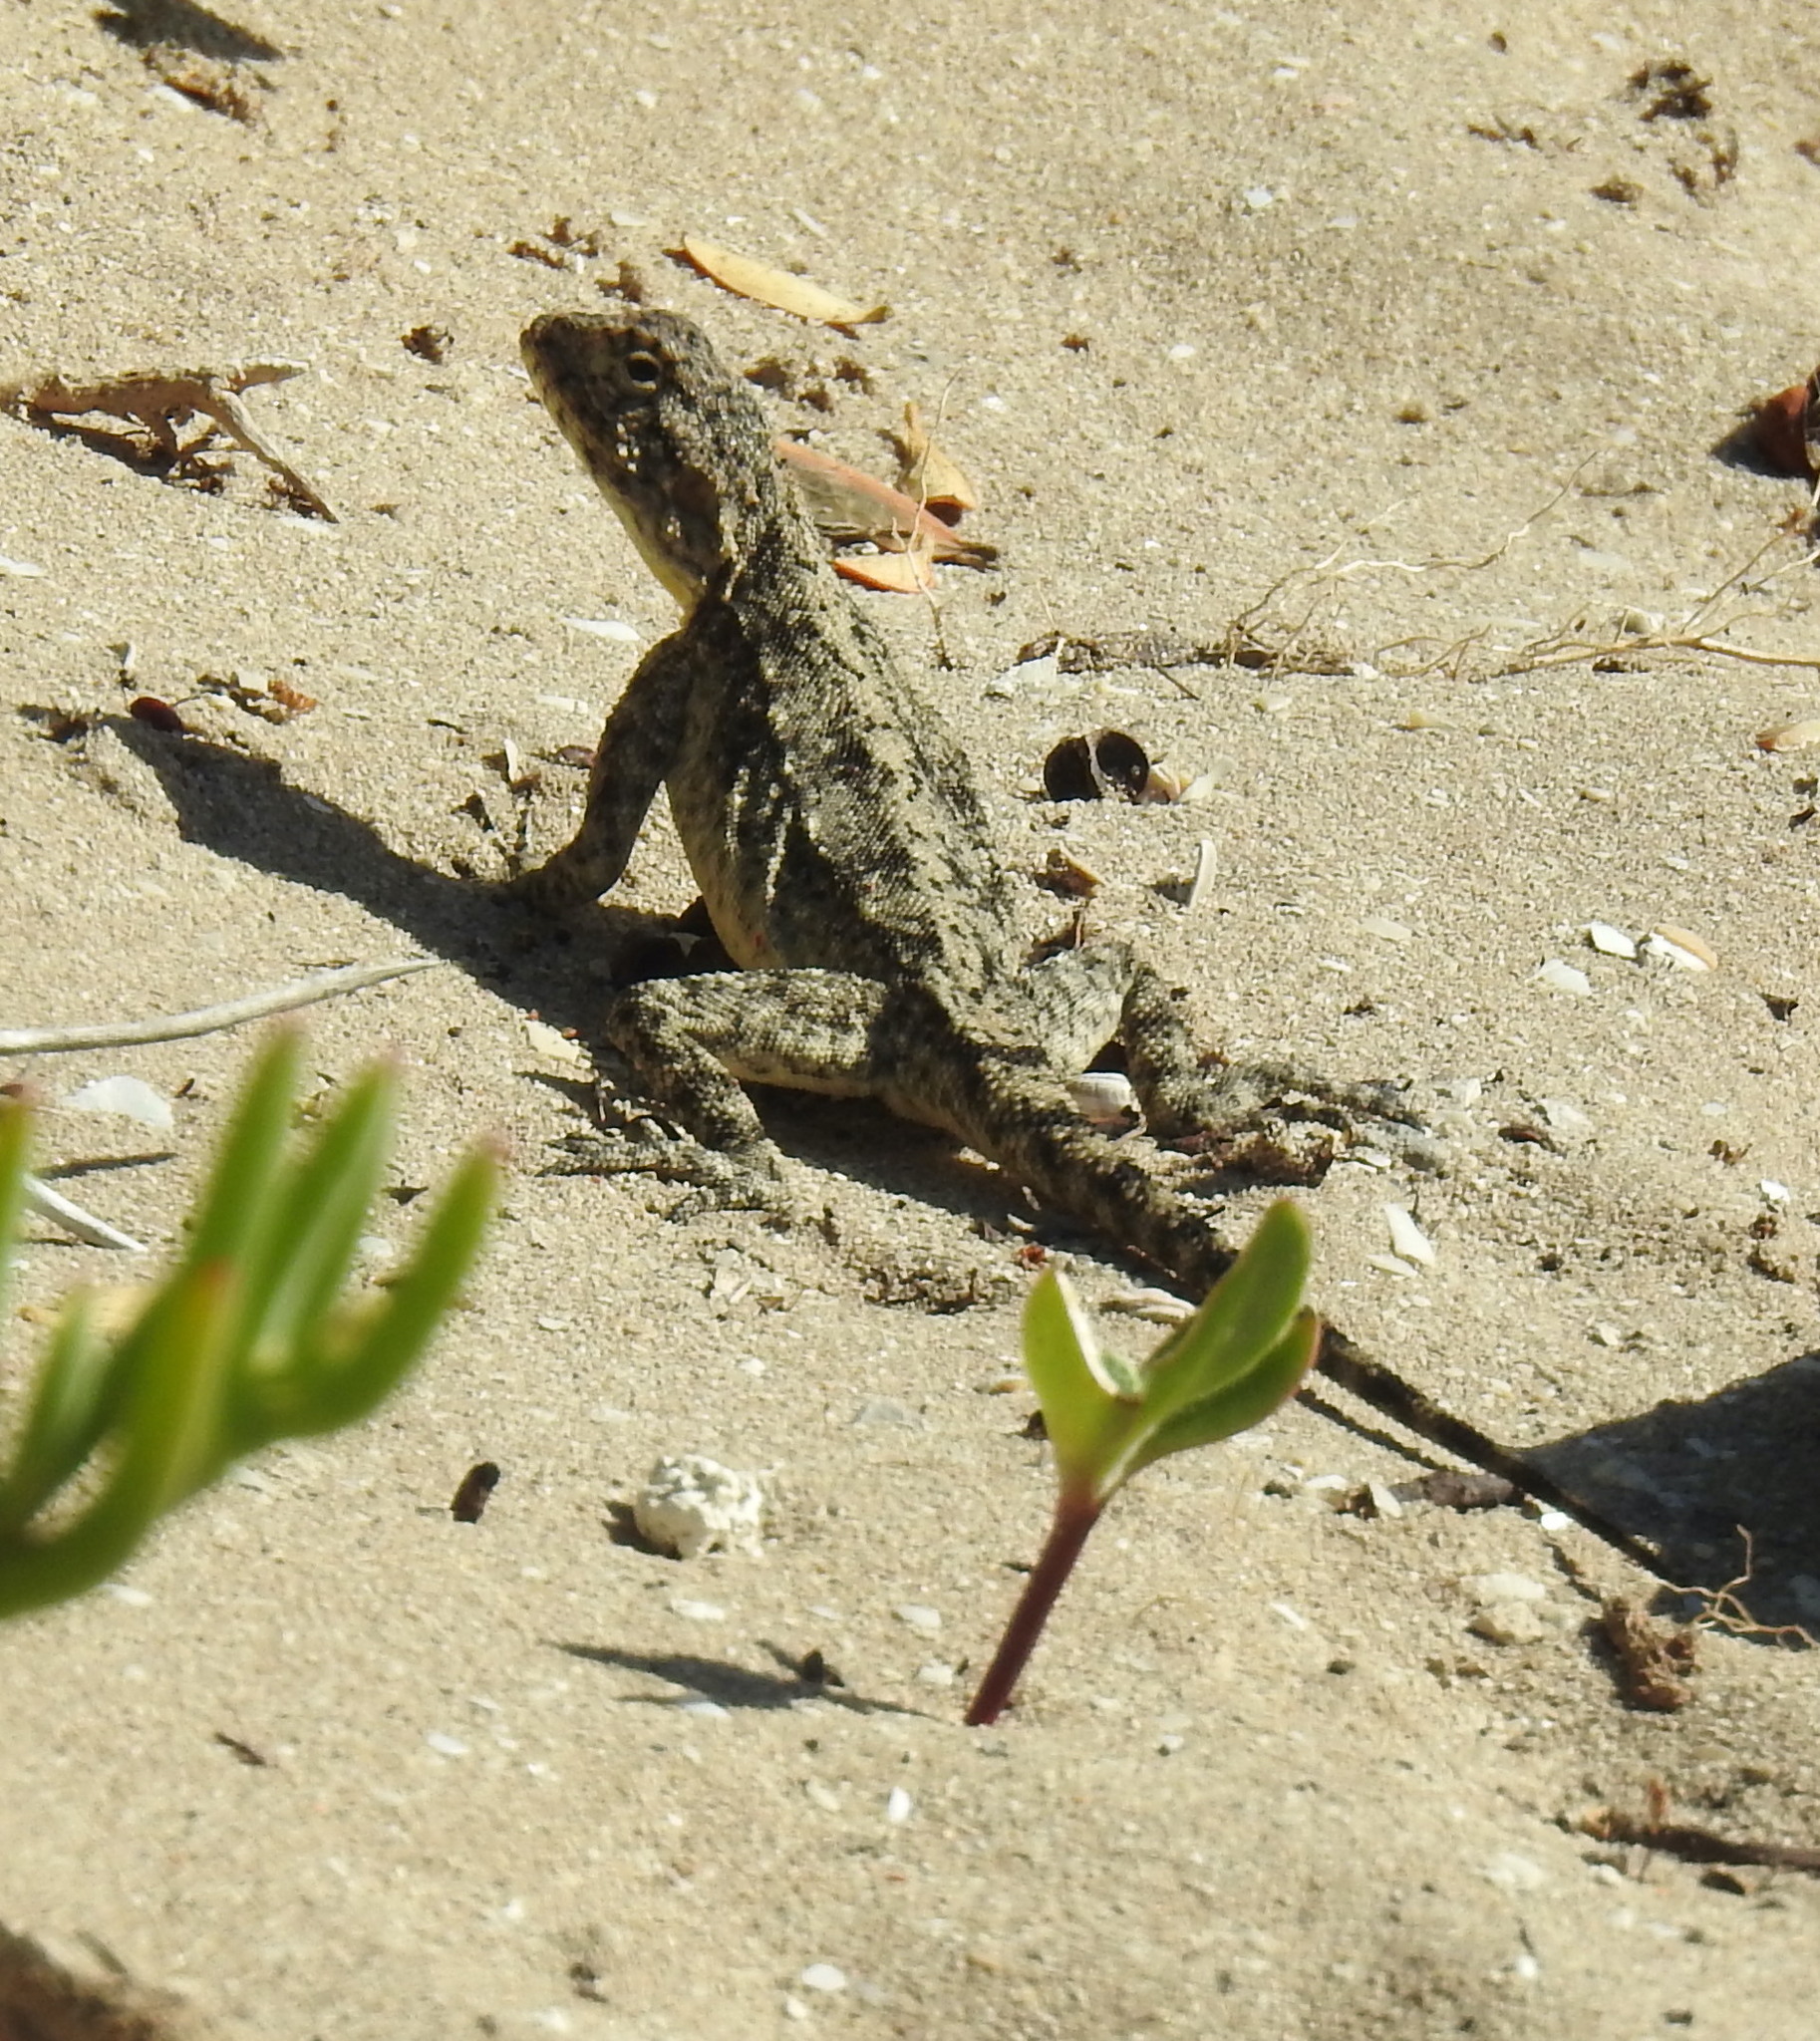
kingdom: Animalia
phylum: Chordata
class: Squamata
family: Agamidae
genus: Agama
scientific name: Agama atra
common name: Southern african rock agama
